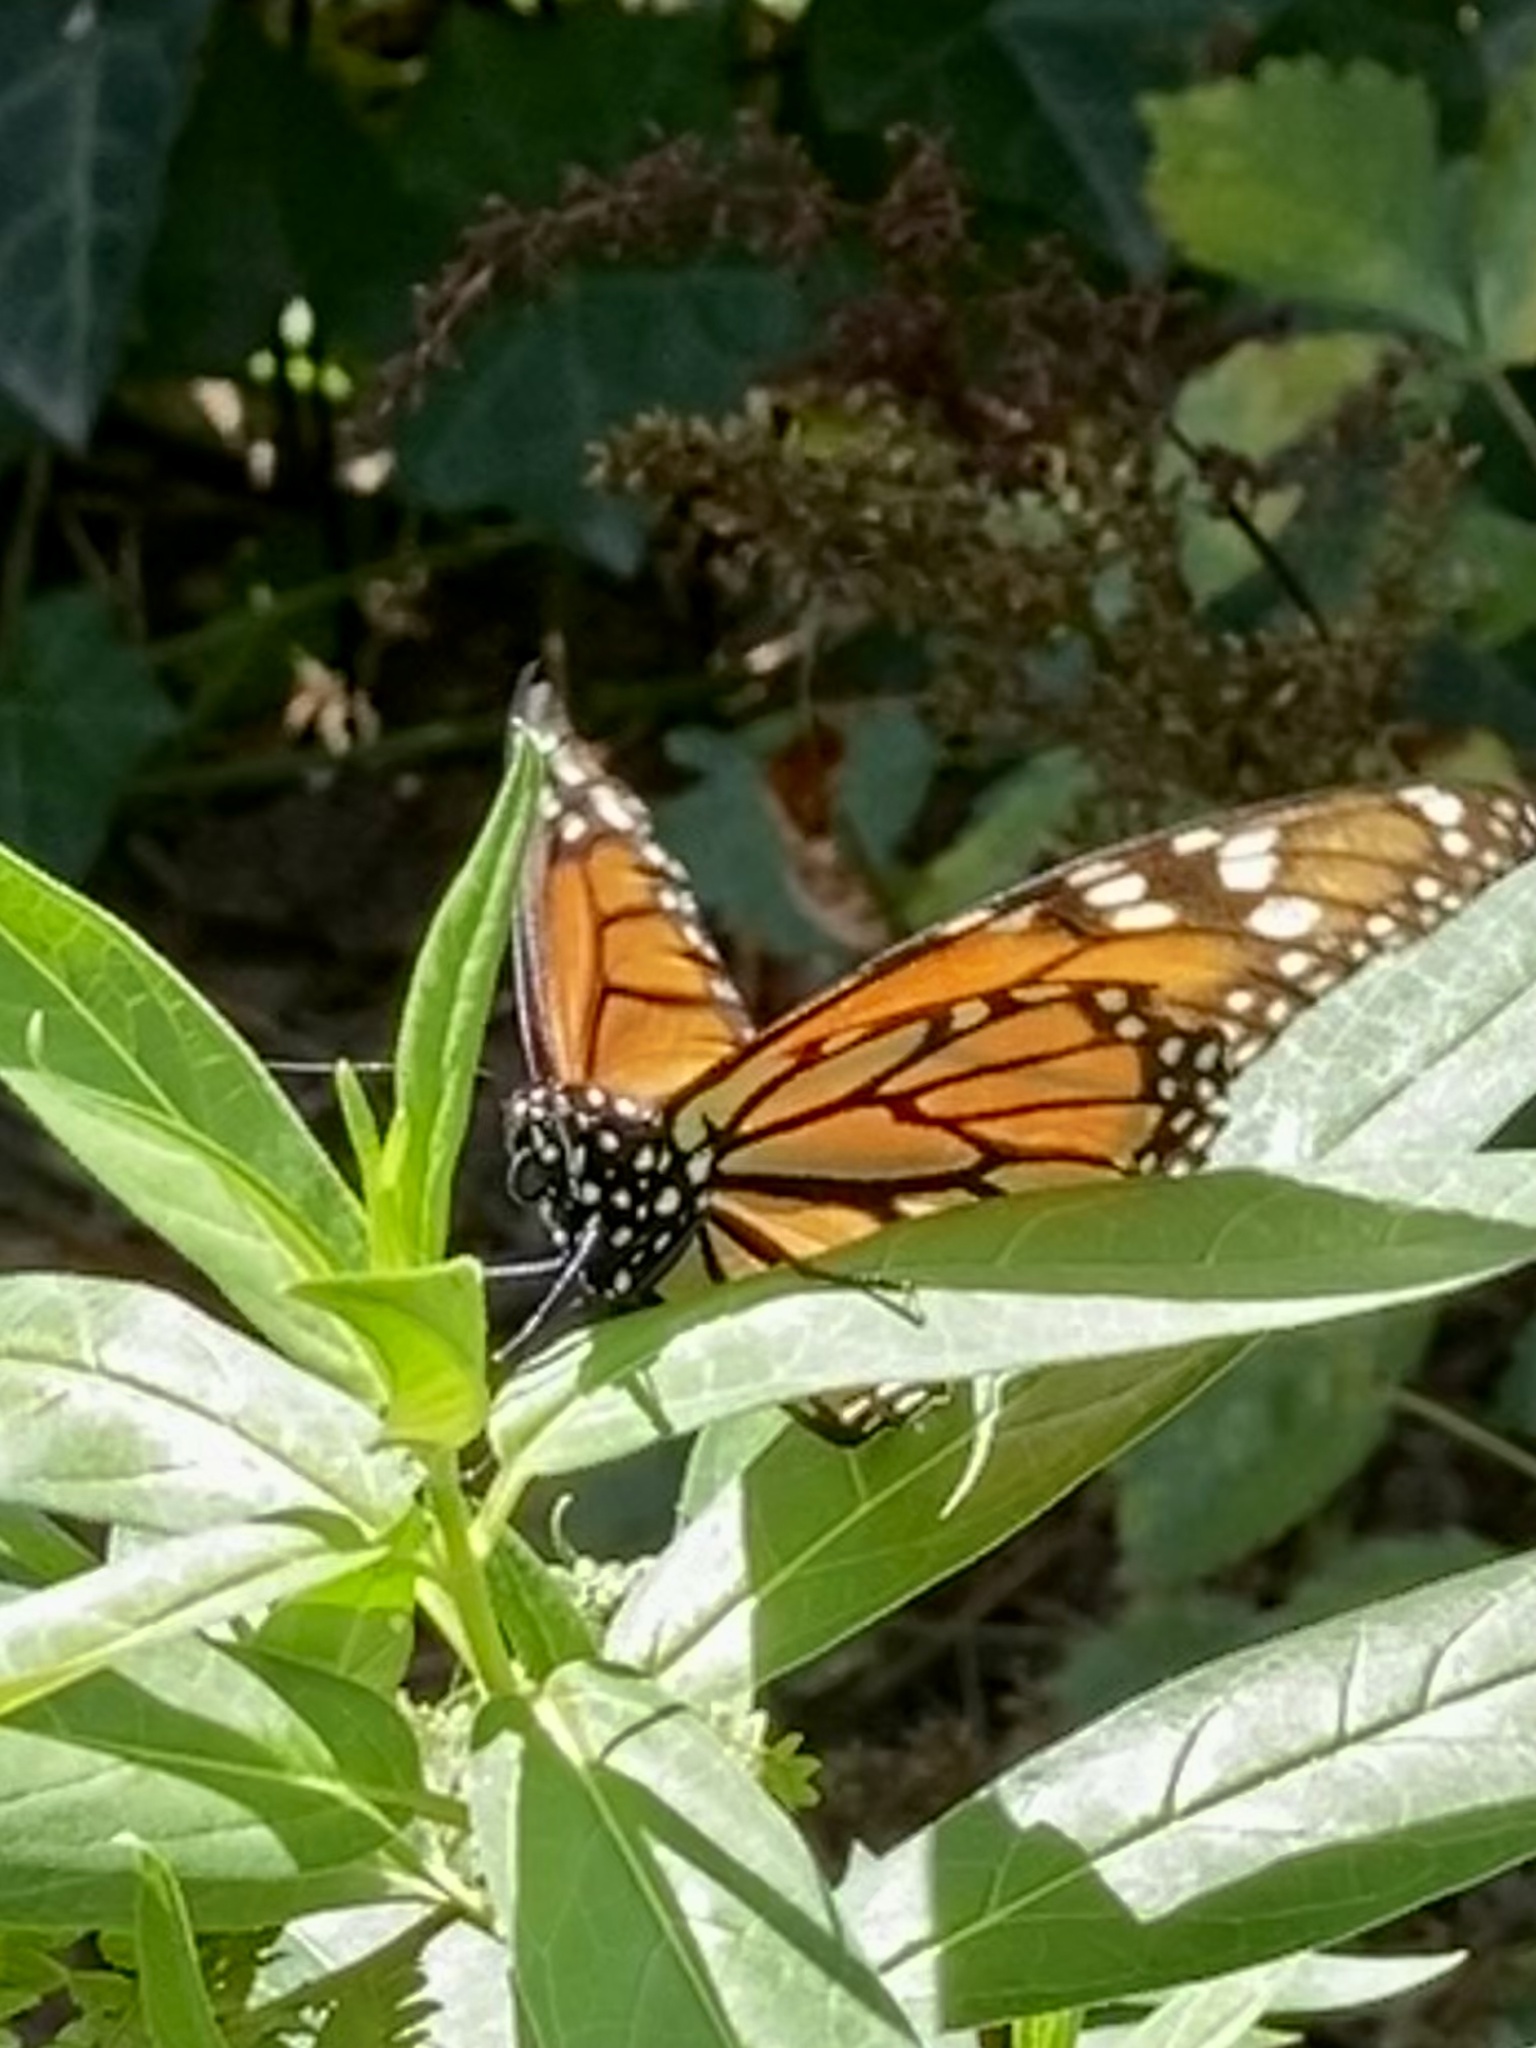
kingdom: Animalia
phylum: Arthropoda
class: Insecta
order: Lepidoptera
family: Nymphalidae
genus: Danaus
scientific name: Danaus plexippus
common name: Monarch
